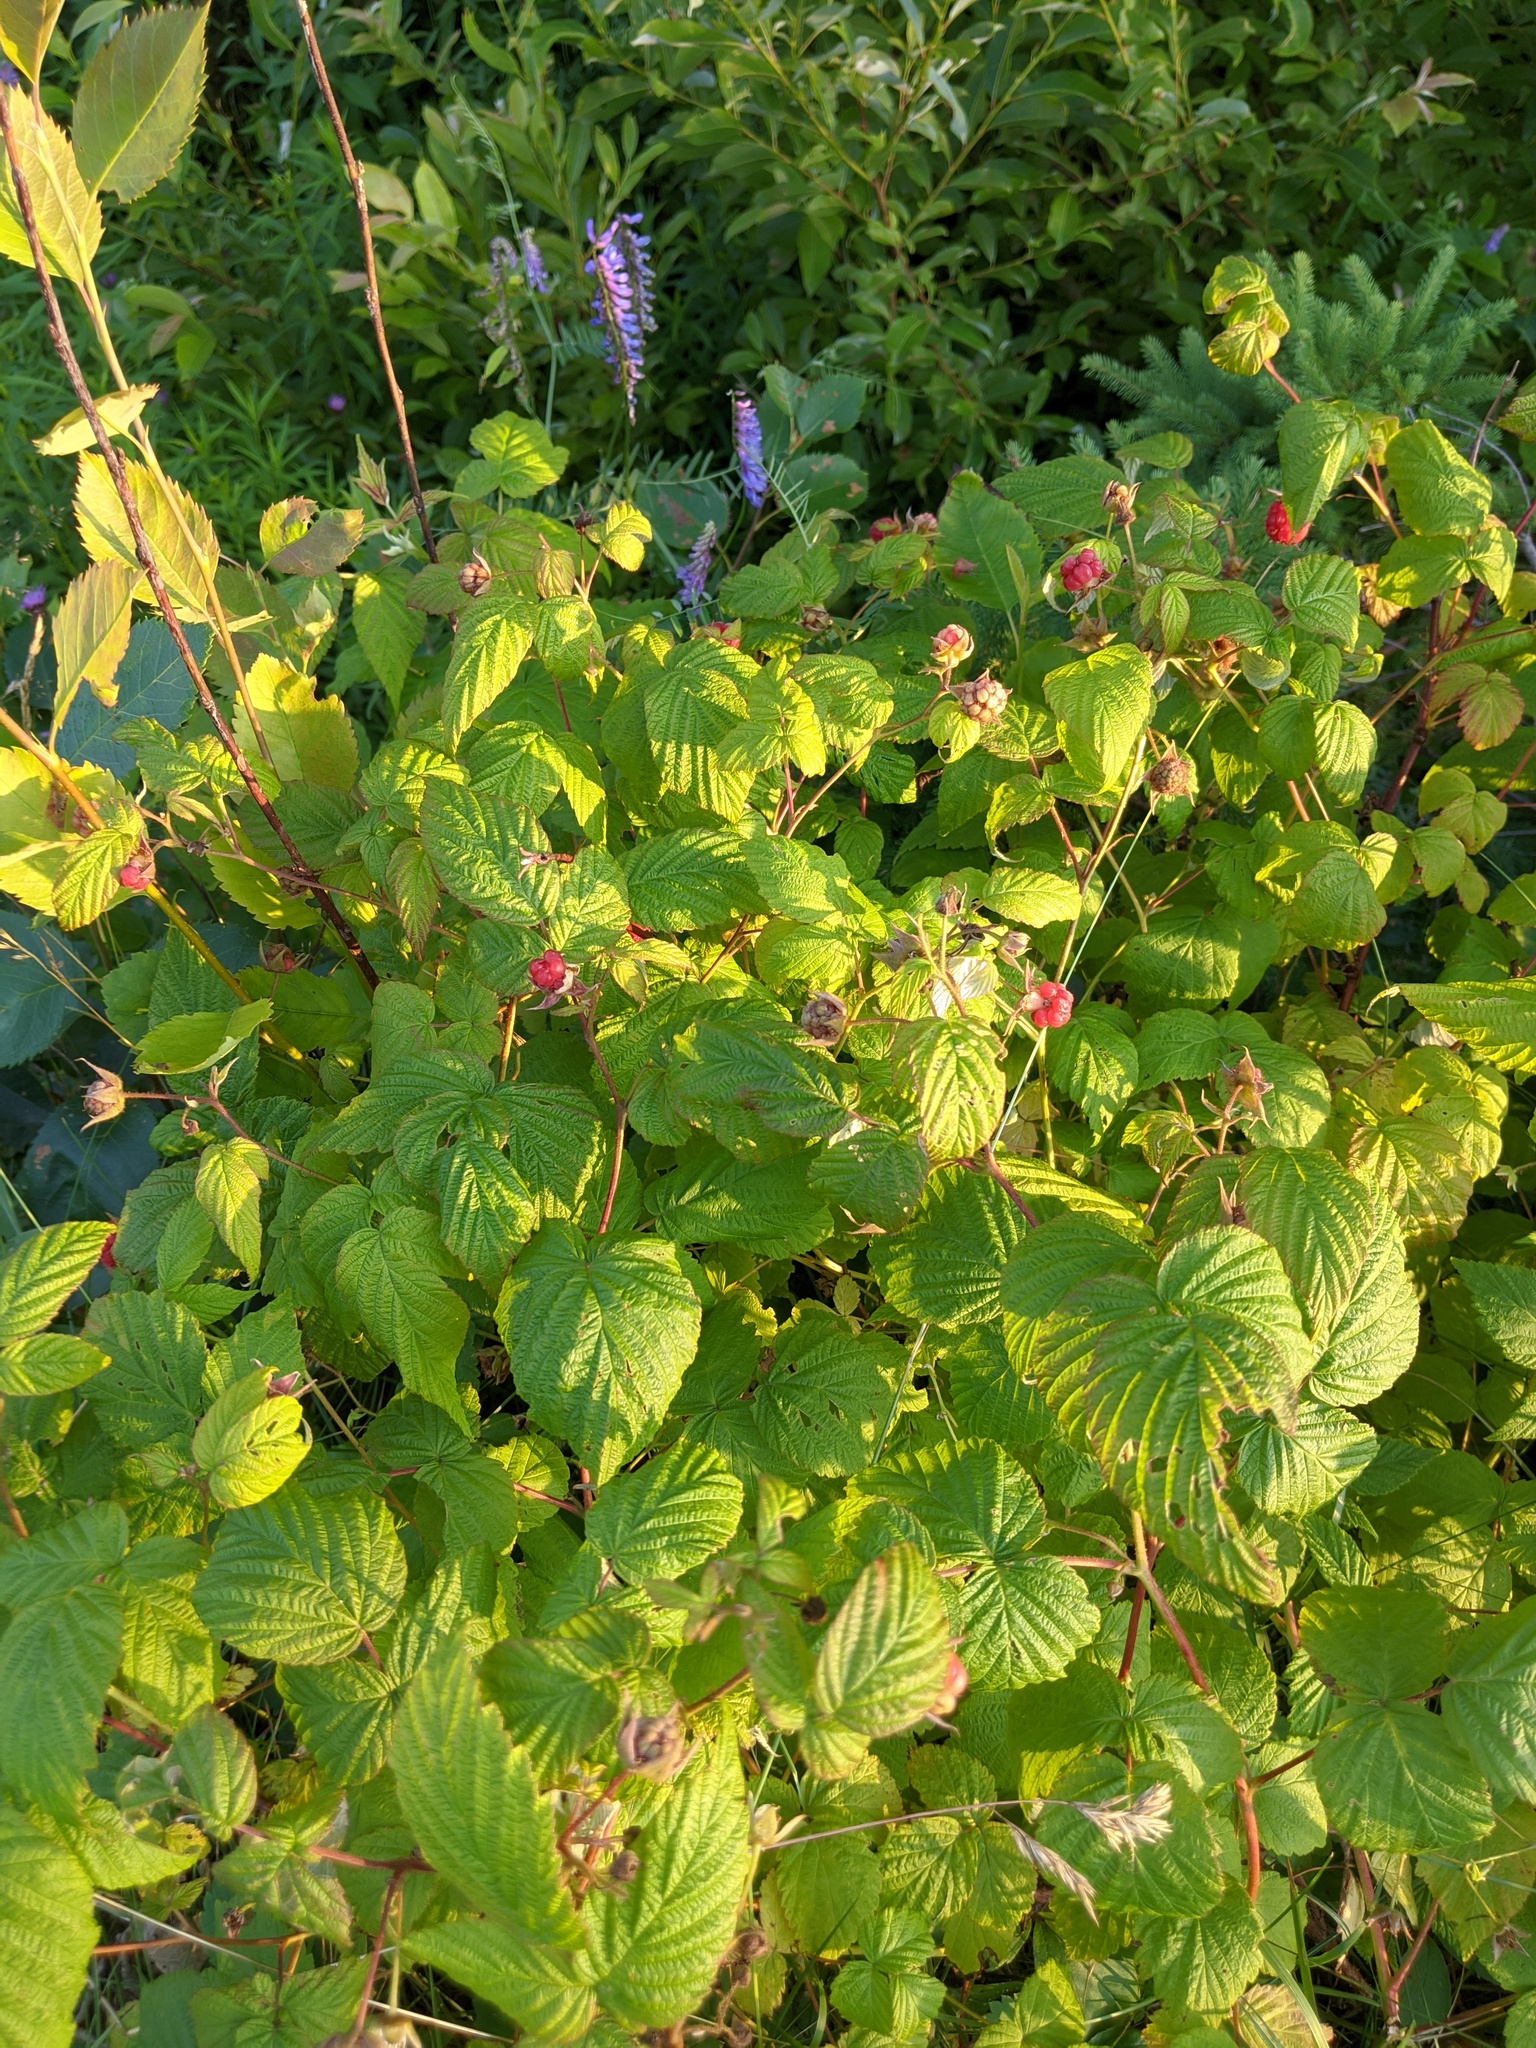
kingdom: Plantae
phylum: Tracheophyta
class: Magnoliopsida
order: Rosales
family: Rosaceae
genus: Rubus
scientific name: Rubus idaeus
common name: Raspberry
